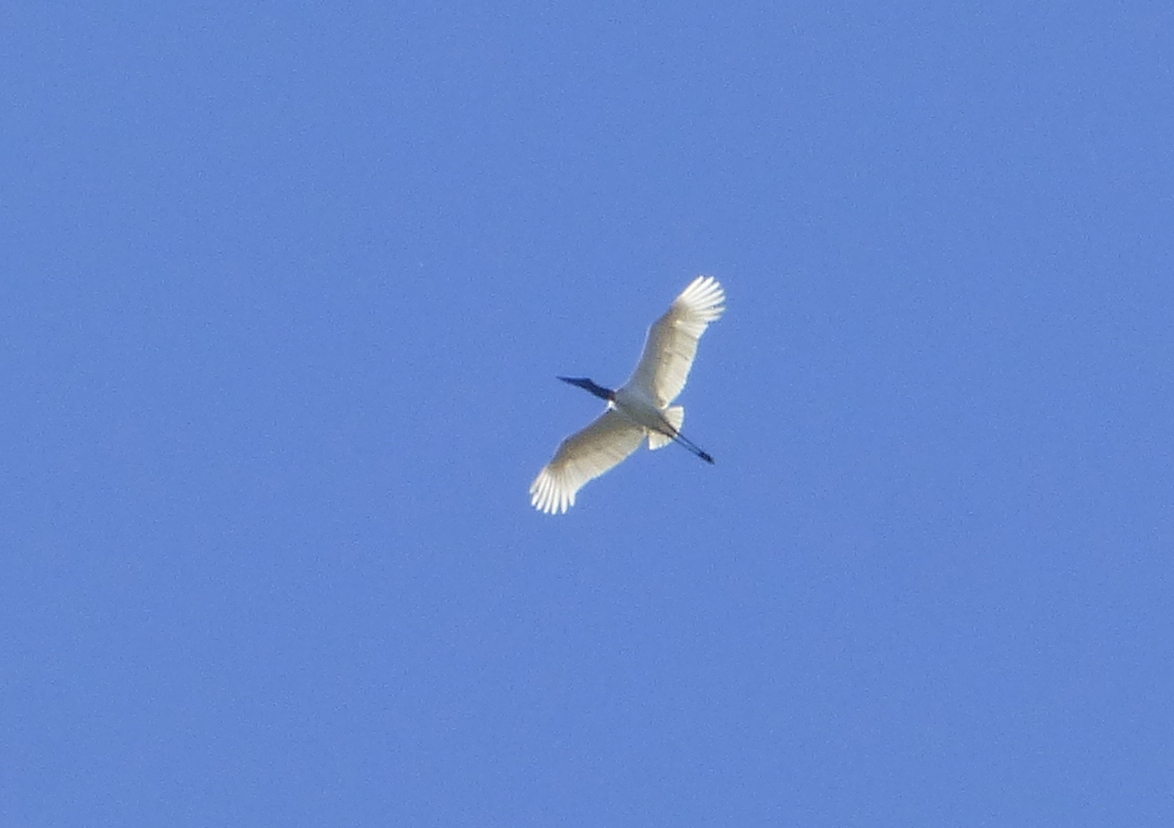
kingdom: Animalia
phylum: Chordata
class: Aves
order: Ciconiiformes
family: Ciconiidae
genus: Jabiru
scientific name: Jabiru mycteria
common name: Jabiru
